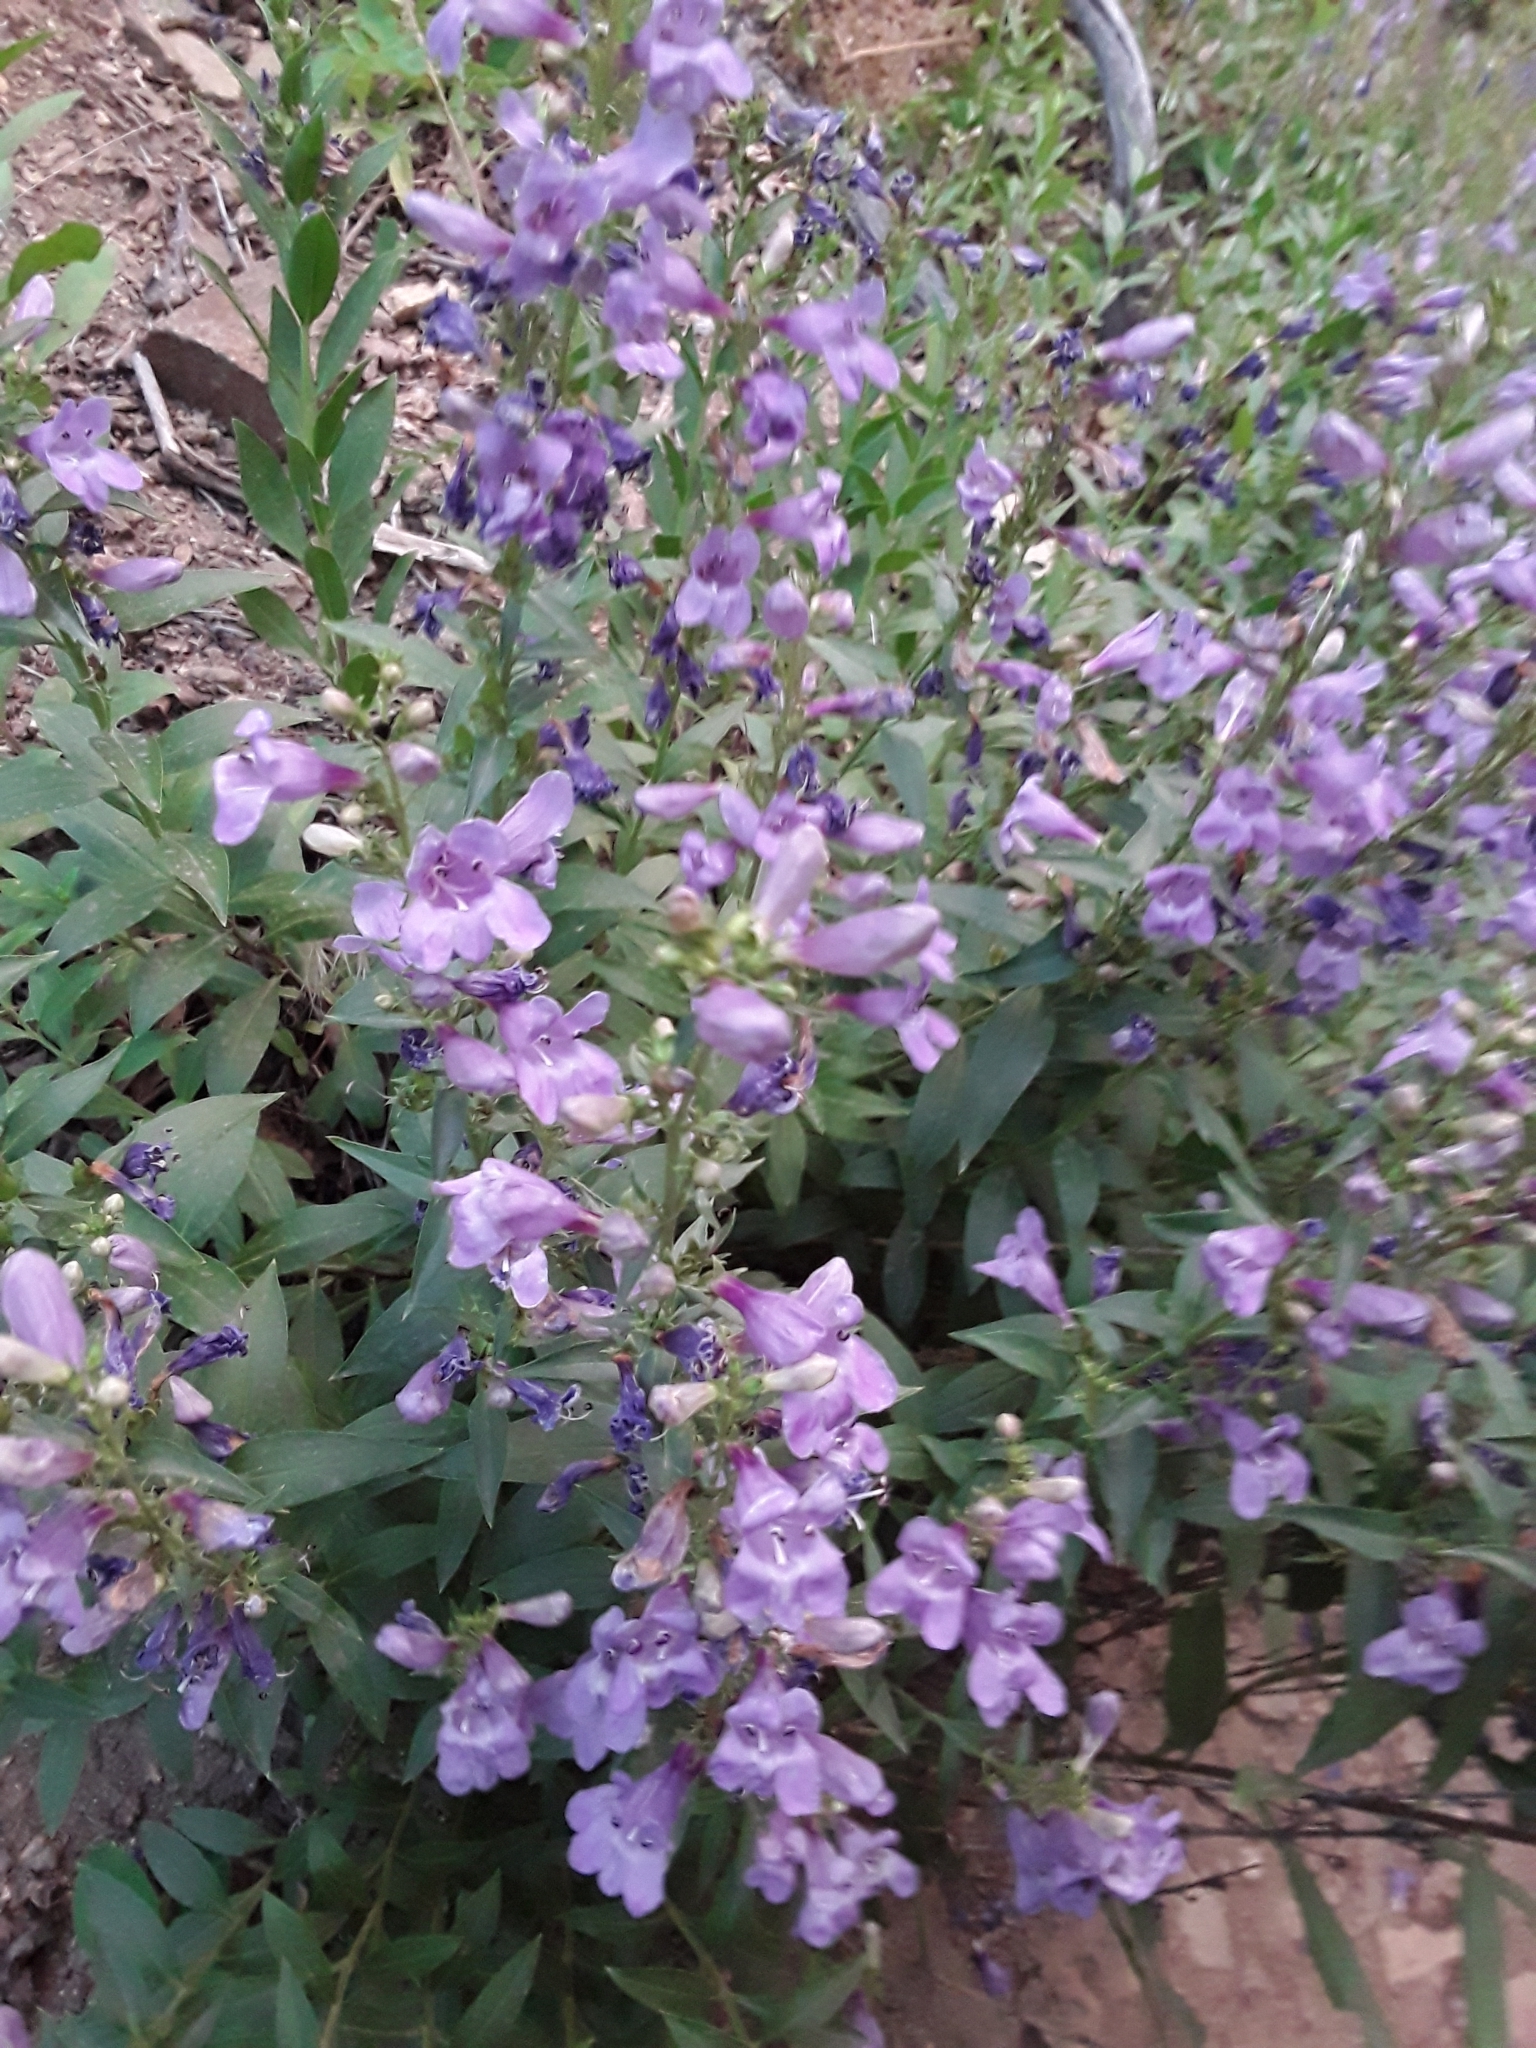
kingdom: Plantae
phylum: Tracheophyta
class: Magnoliopsida
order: Lamiales
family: Plantaginaceae
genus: Penstemon
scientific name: Penstemon platyphyllus
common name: Broadleaf penstemon
